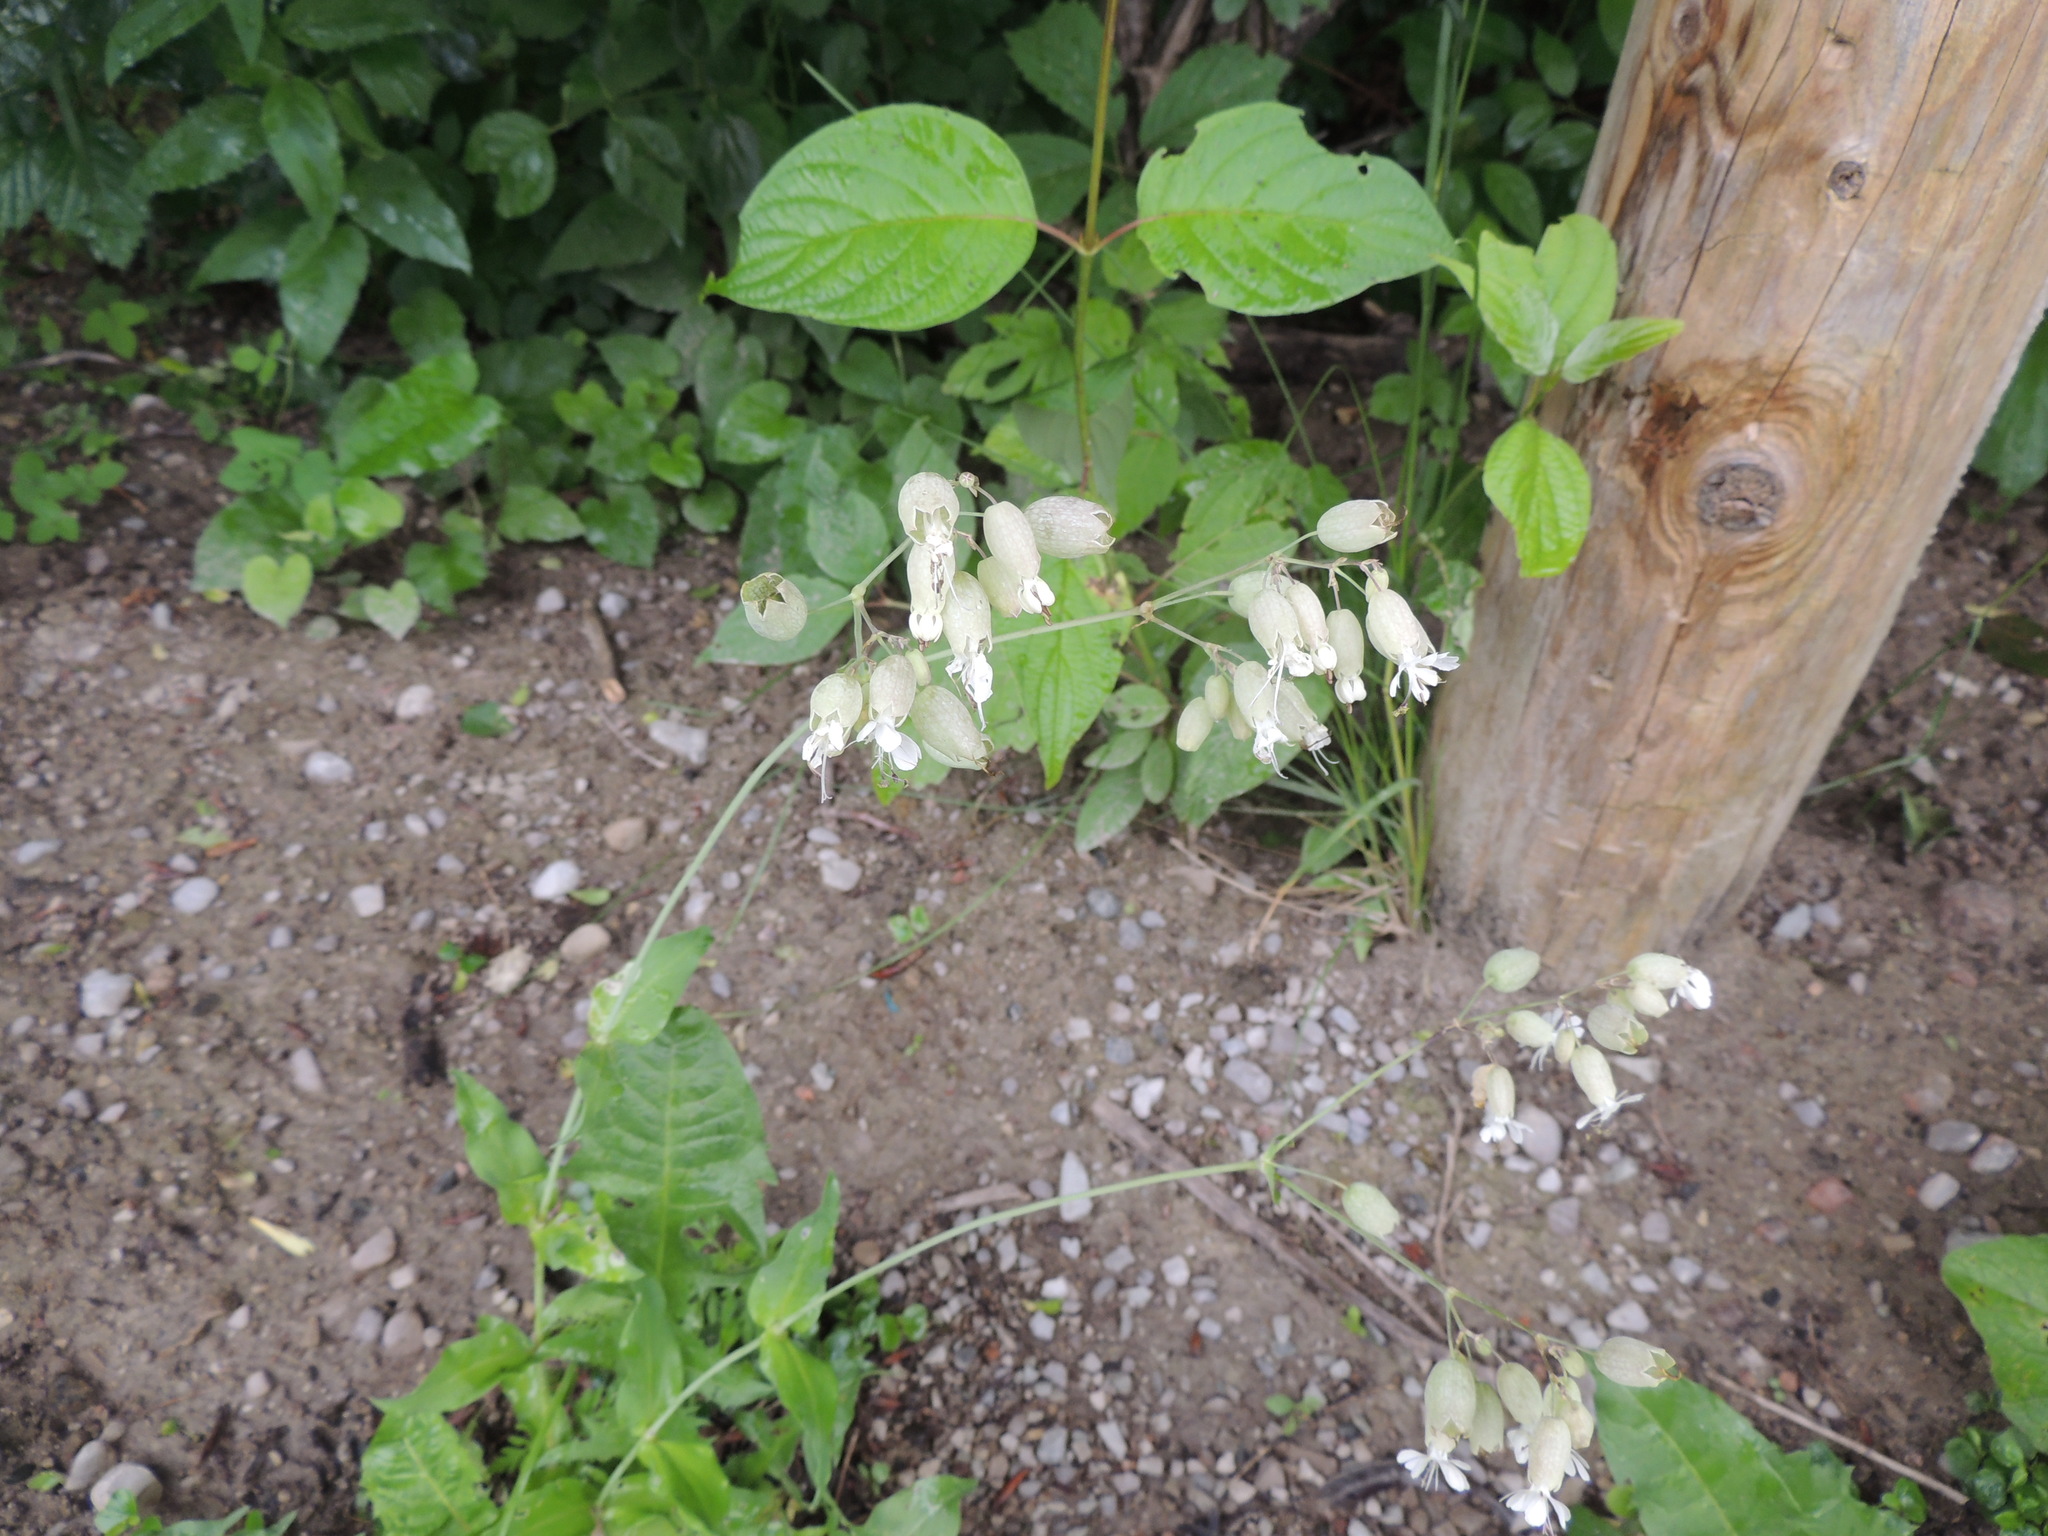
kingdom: Plantae
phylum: Tracheophyta
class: Magnoliopsida
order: Caryophyllales
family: Caryophyllaceae
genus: Silene
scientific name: Silene vulgaris
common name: Bladder campion
